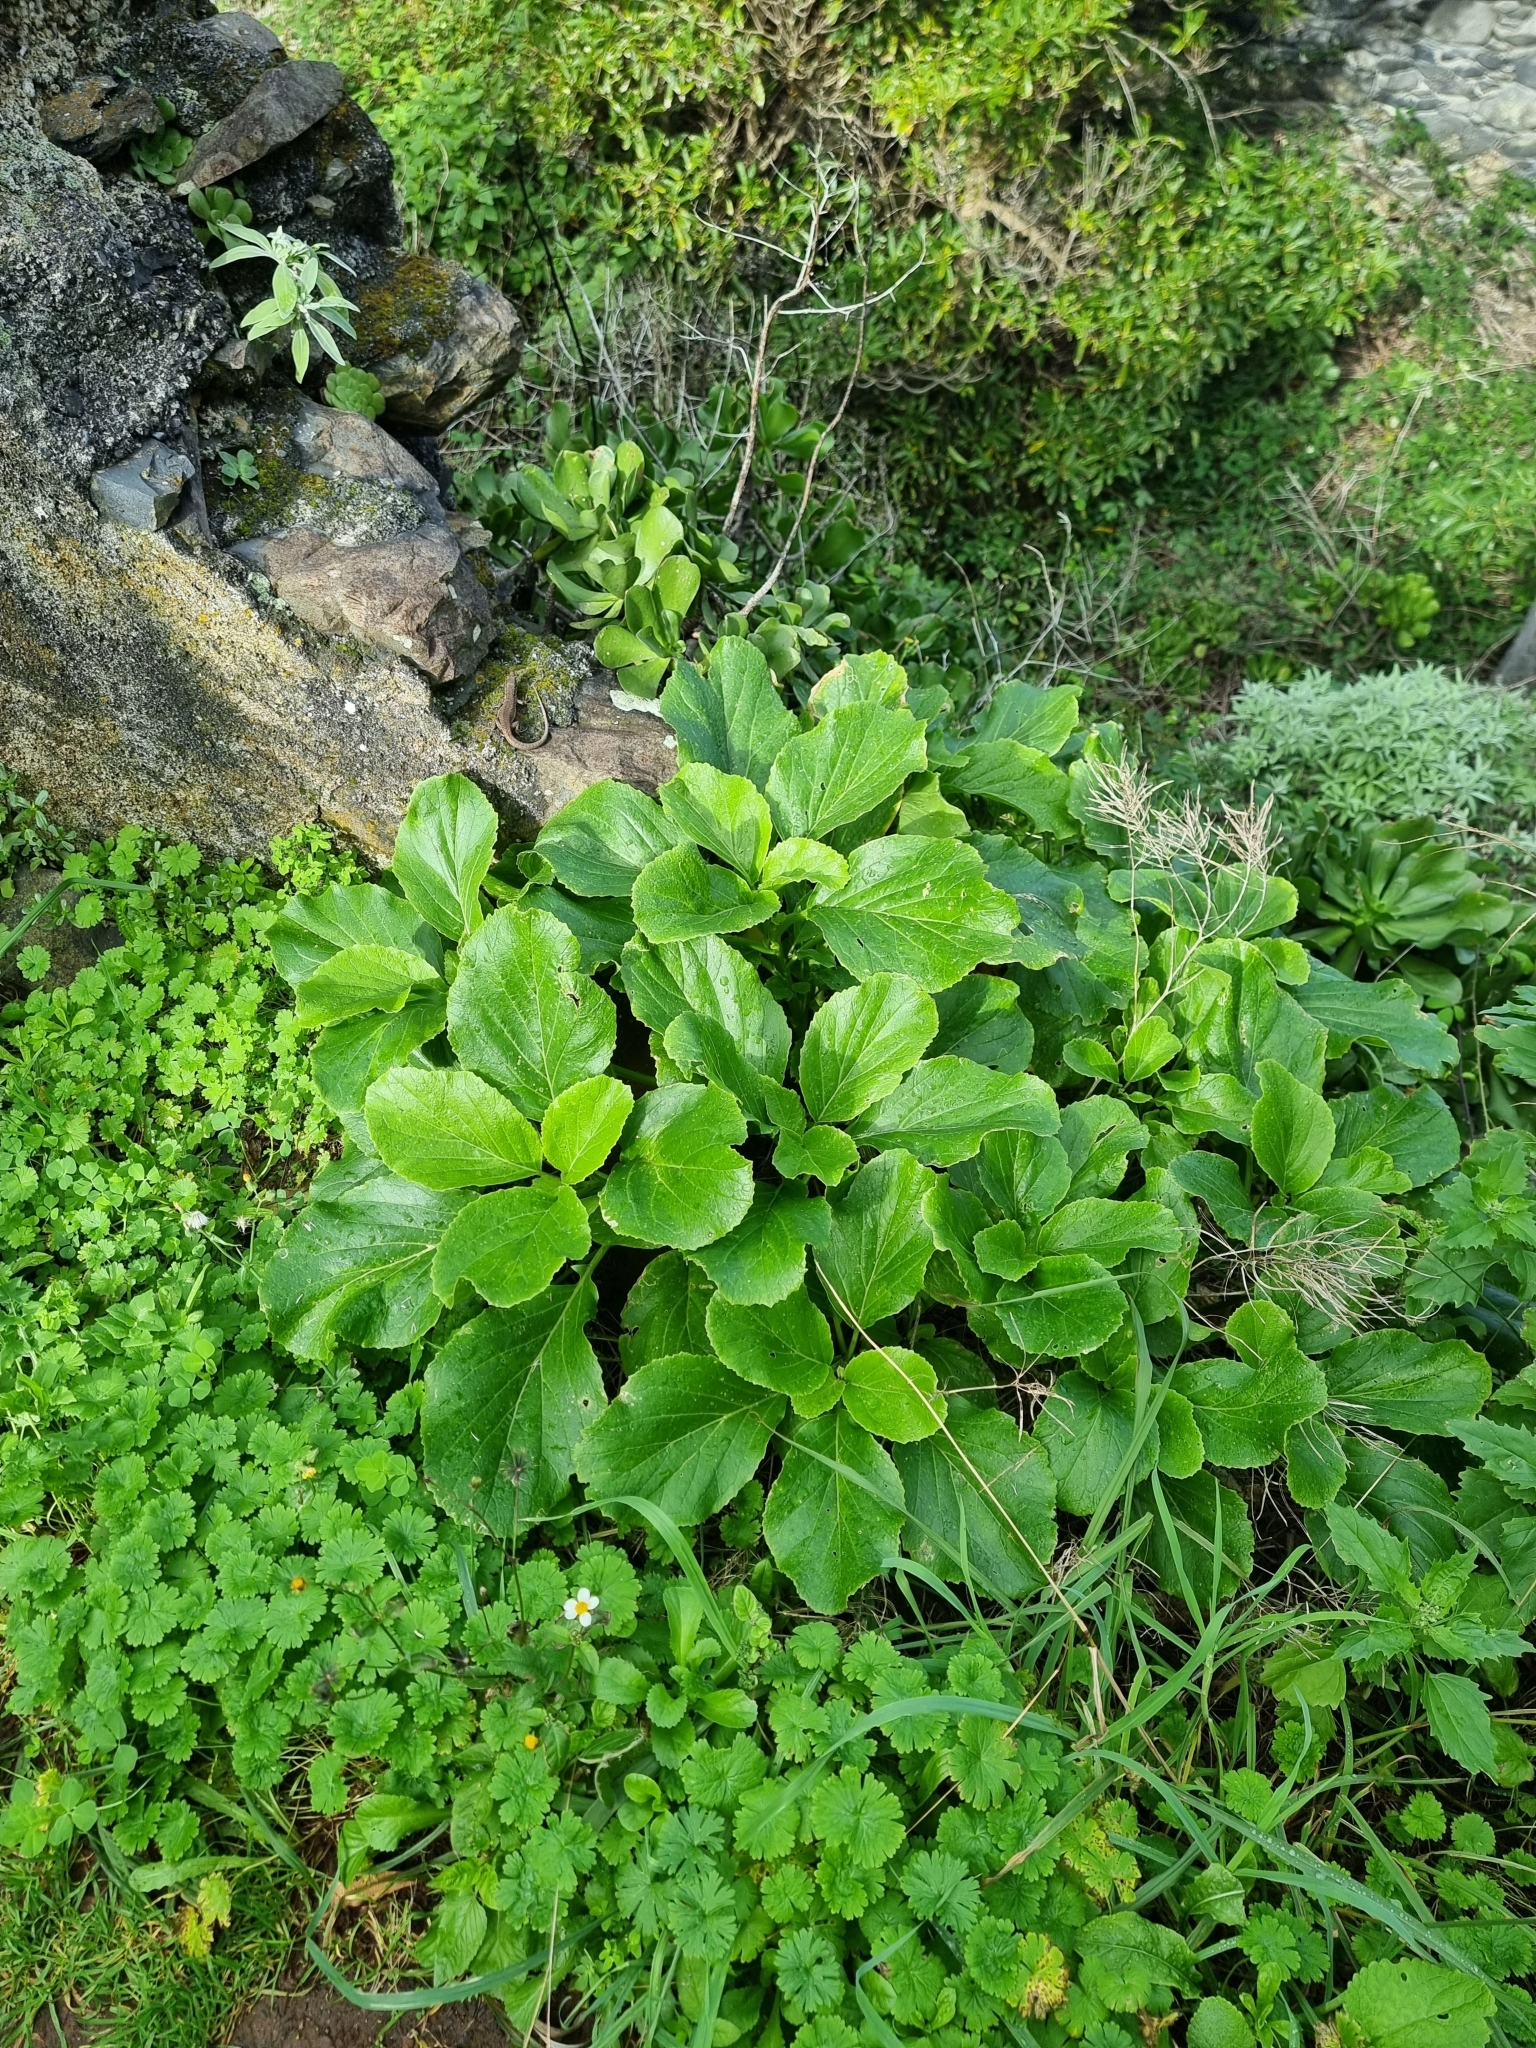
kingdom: Plantae
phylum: Tracheophyta
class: Magnoliopsida
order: Brassicales
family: Brassicaceae
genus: Sinapidendron
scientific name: Sinapidendron rupestre
